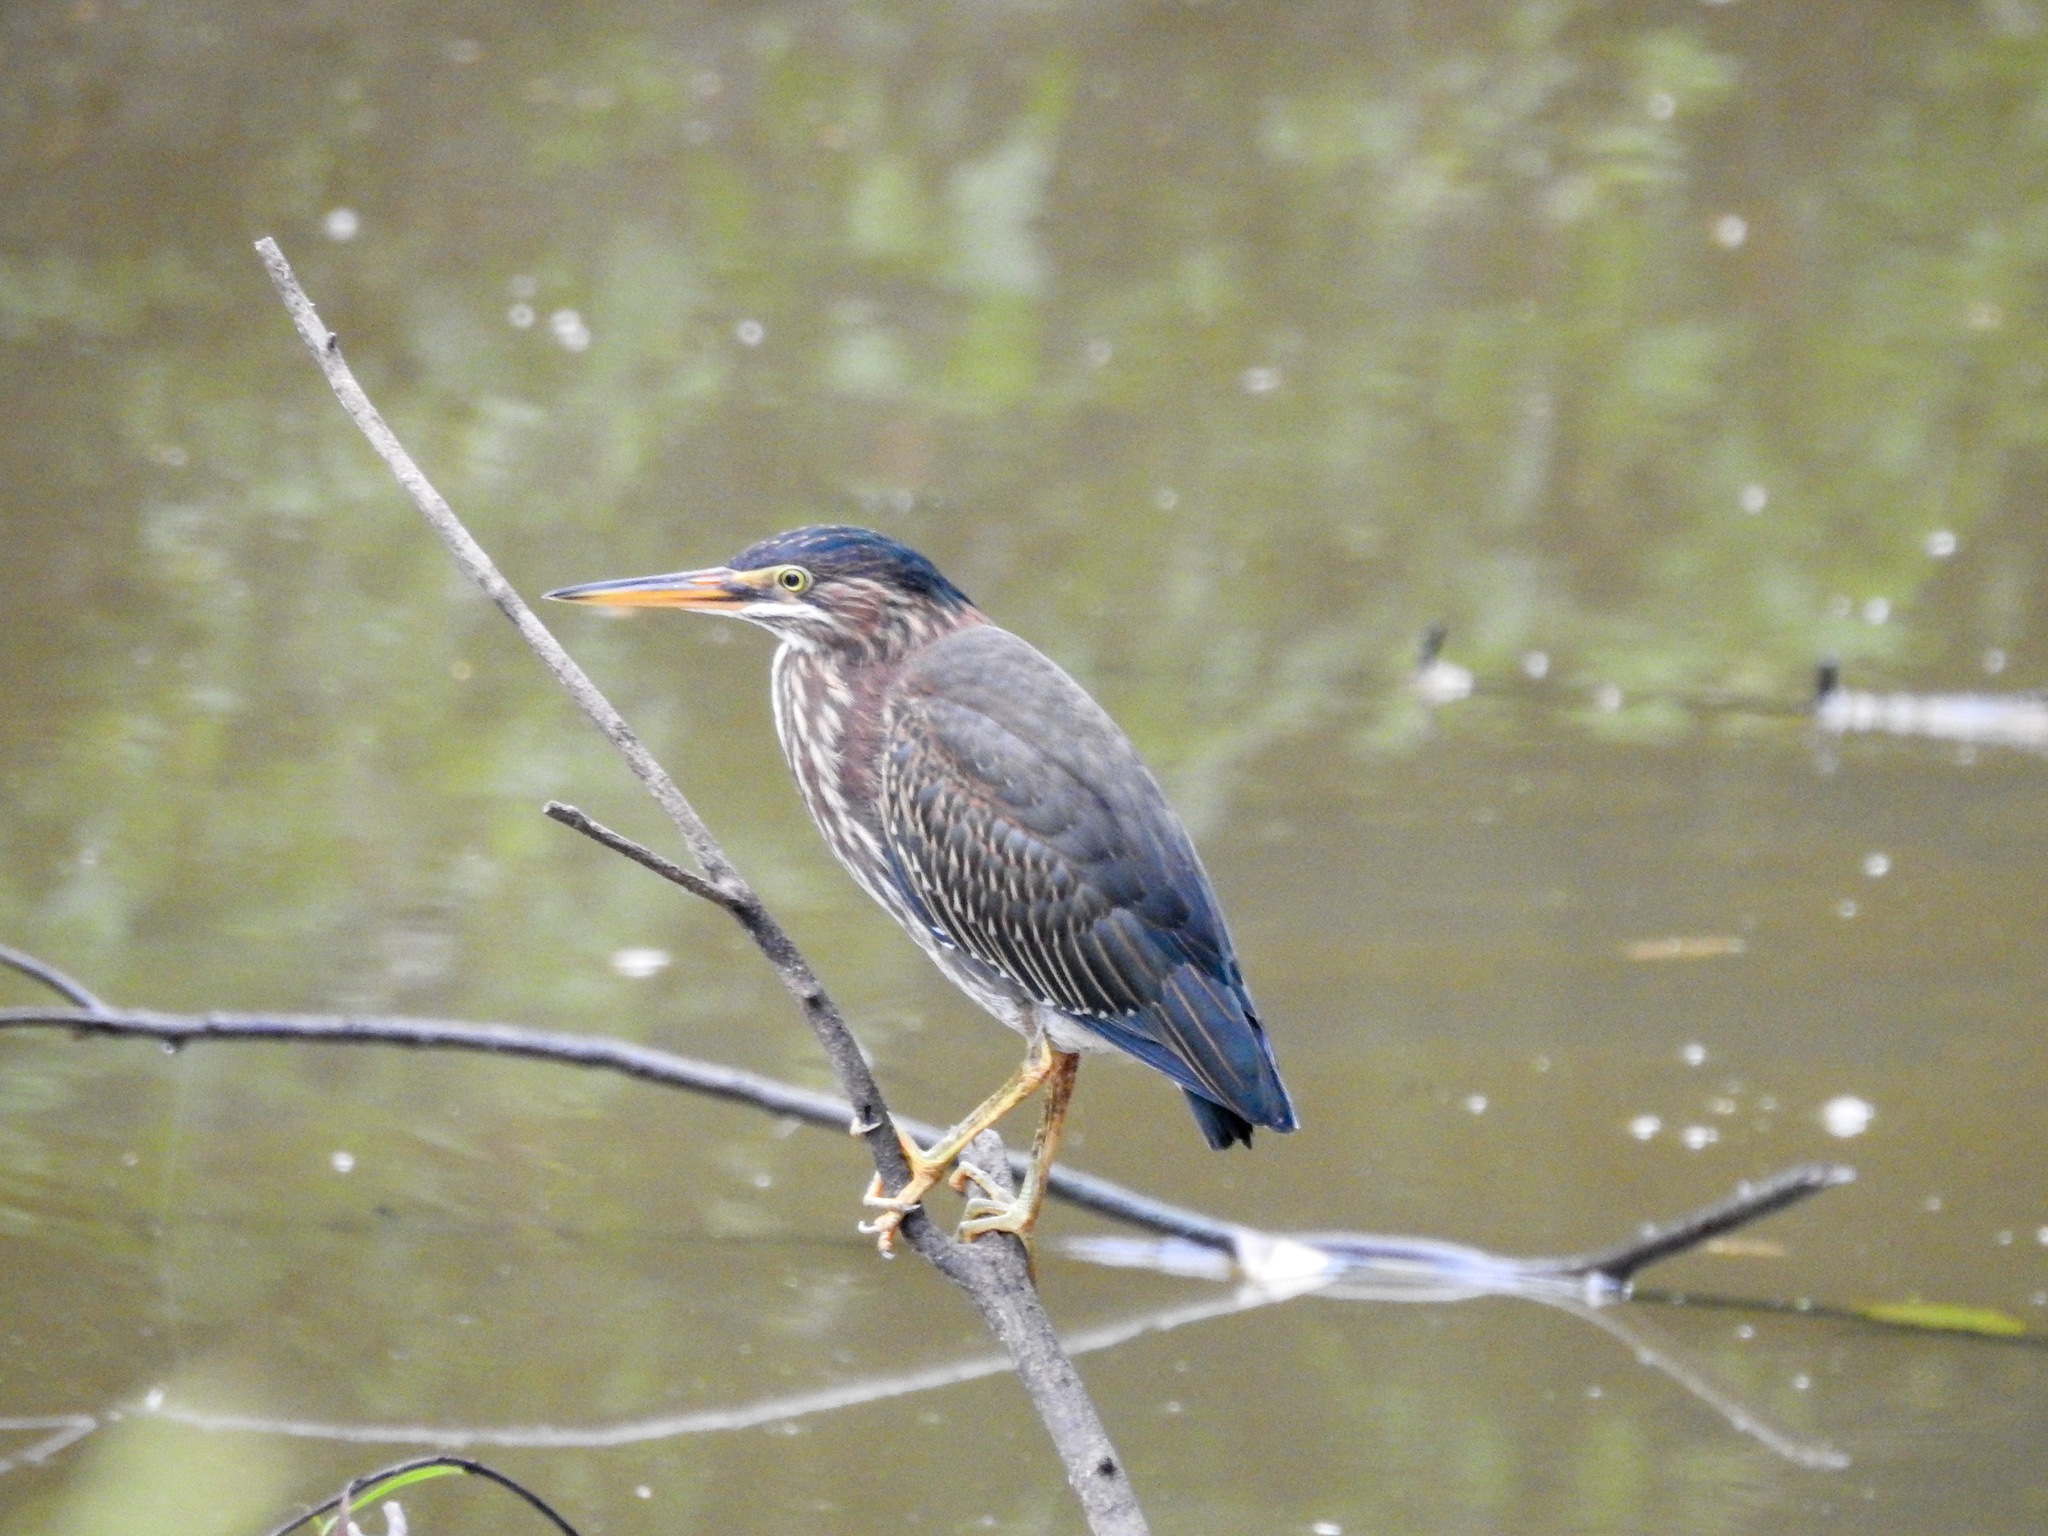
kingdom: Animalia
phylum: Chordata
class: Aves
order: Pelecaniformes
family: Ardeidae
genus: Butorides
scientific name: Butorides virescens
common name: Green heron
